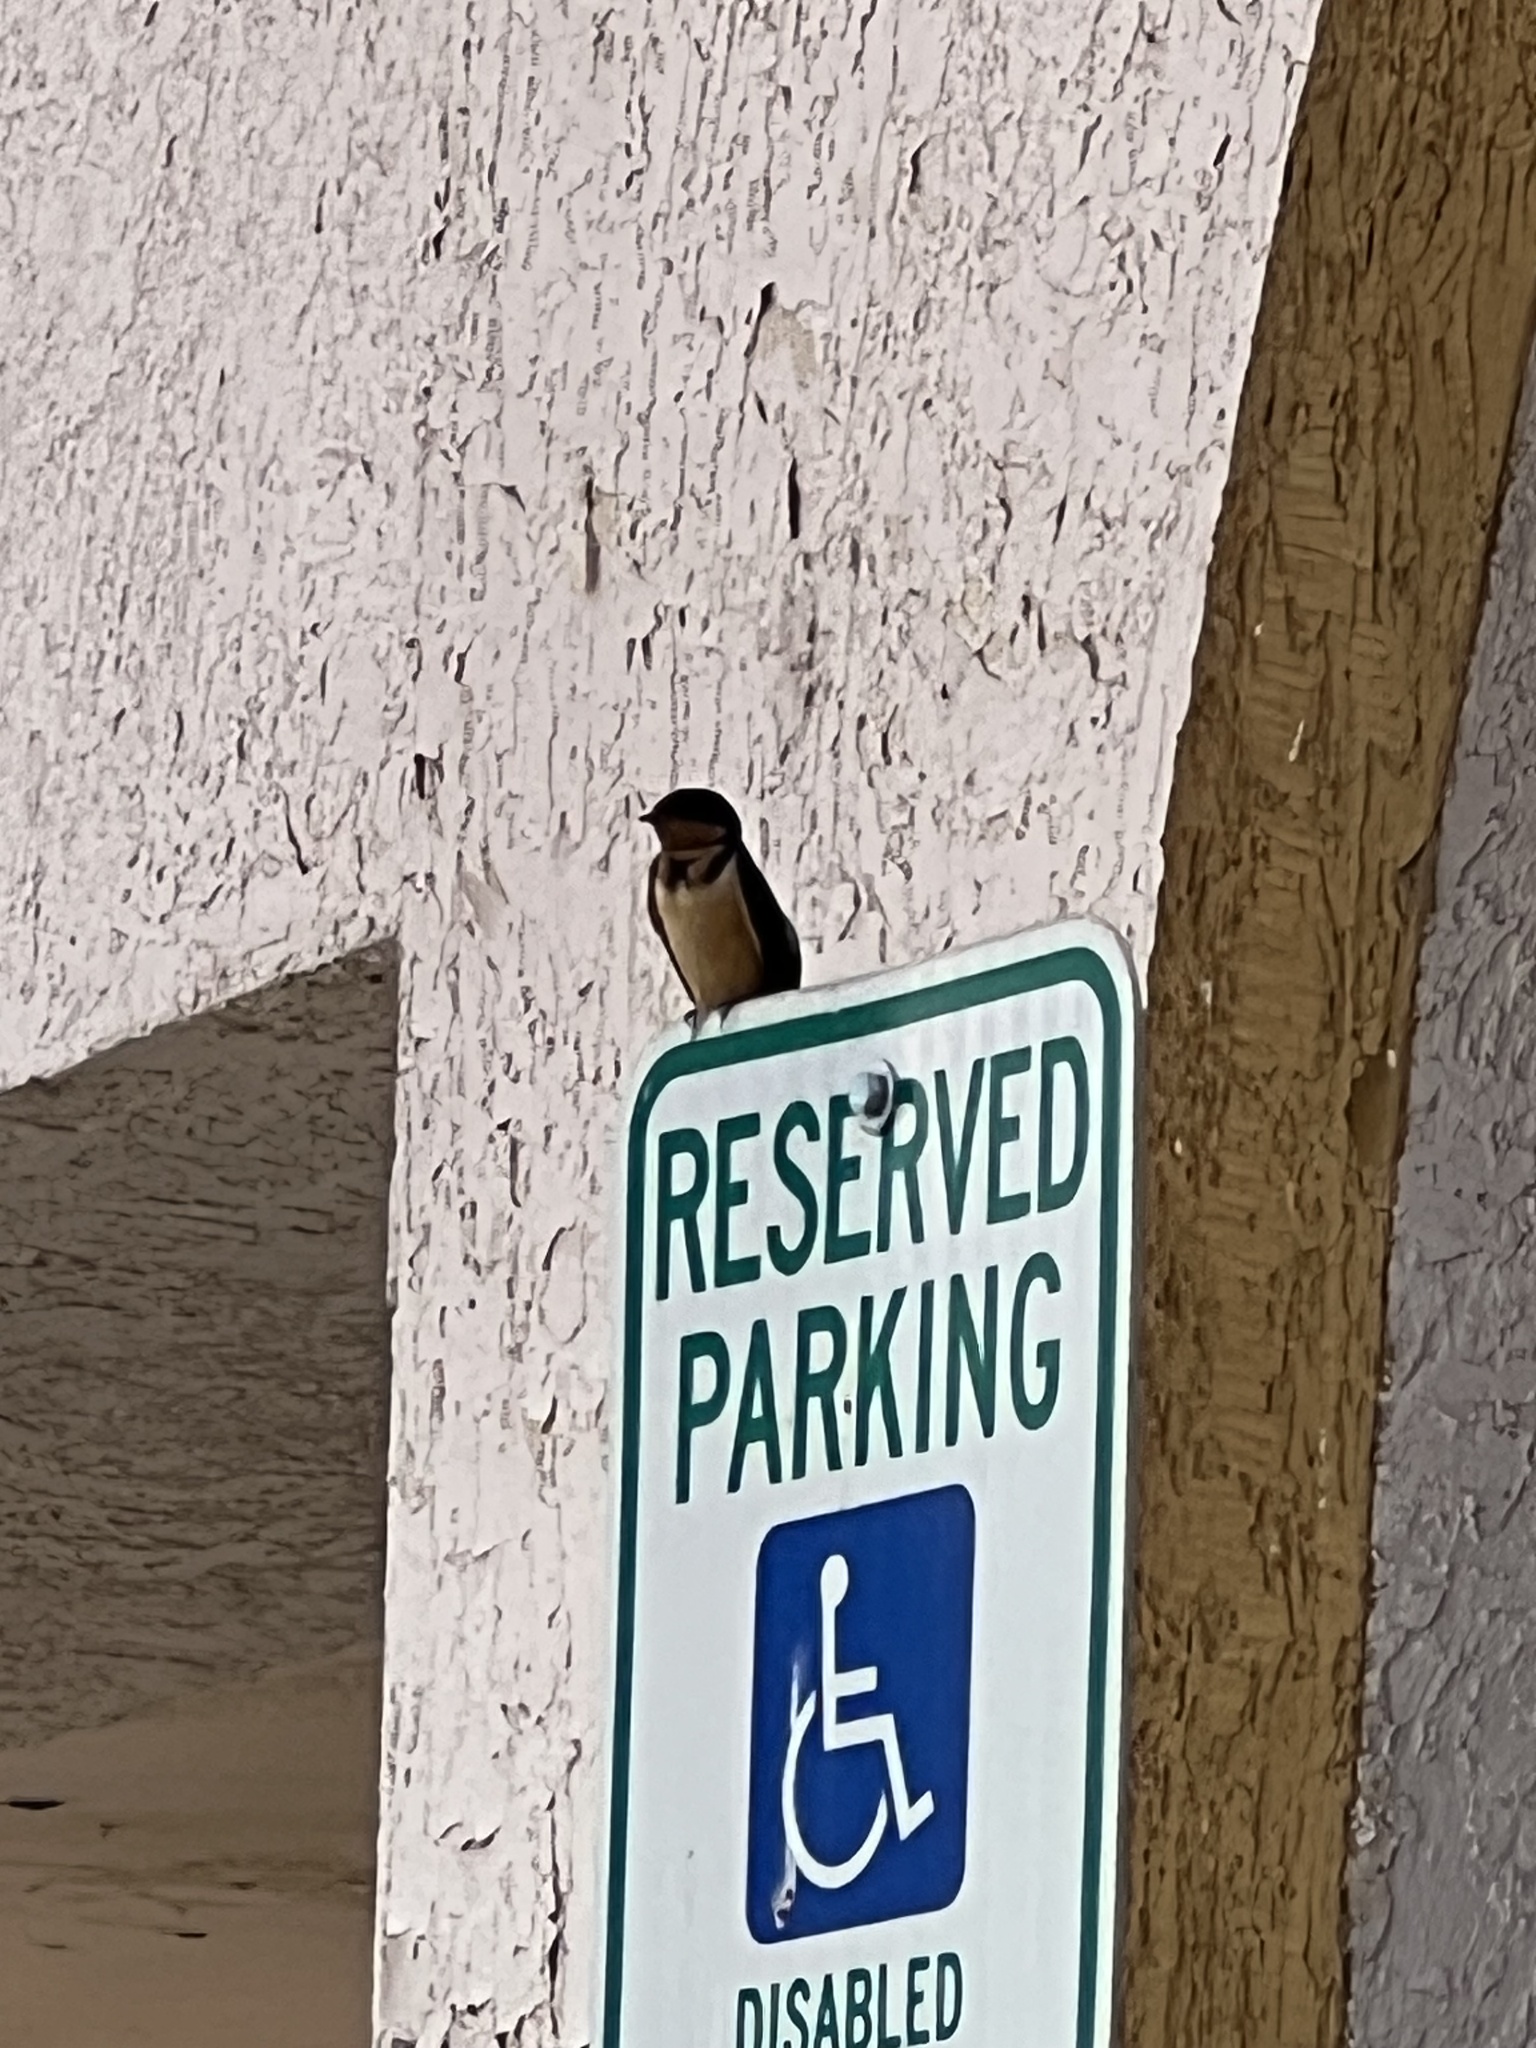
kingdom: Animalia
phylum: Chordata
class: Aves
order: Passeriformes
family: Hirundinidae
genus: Hirundo
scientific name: Hirundo rustica
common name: Barn swallow
